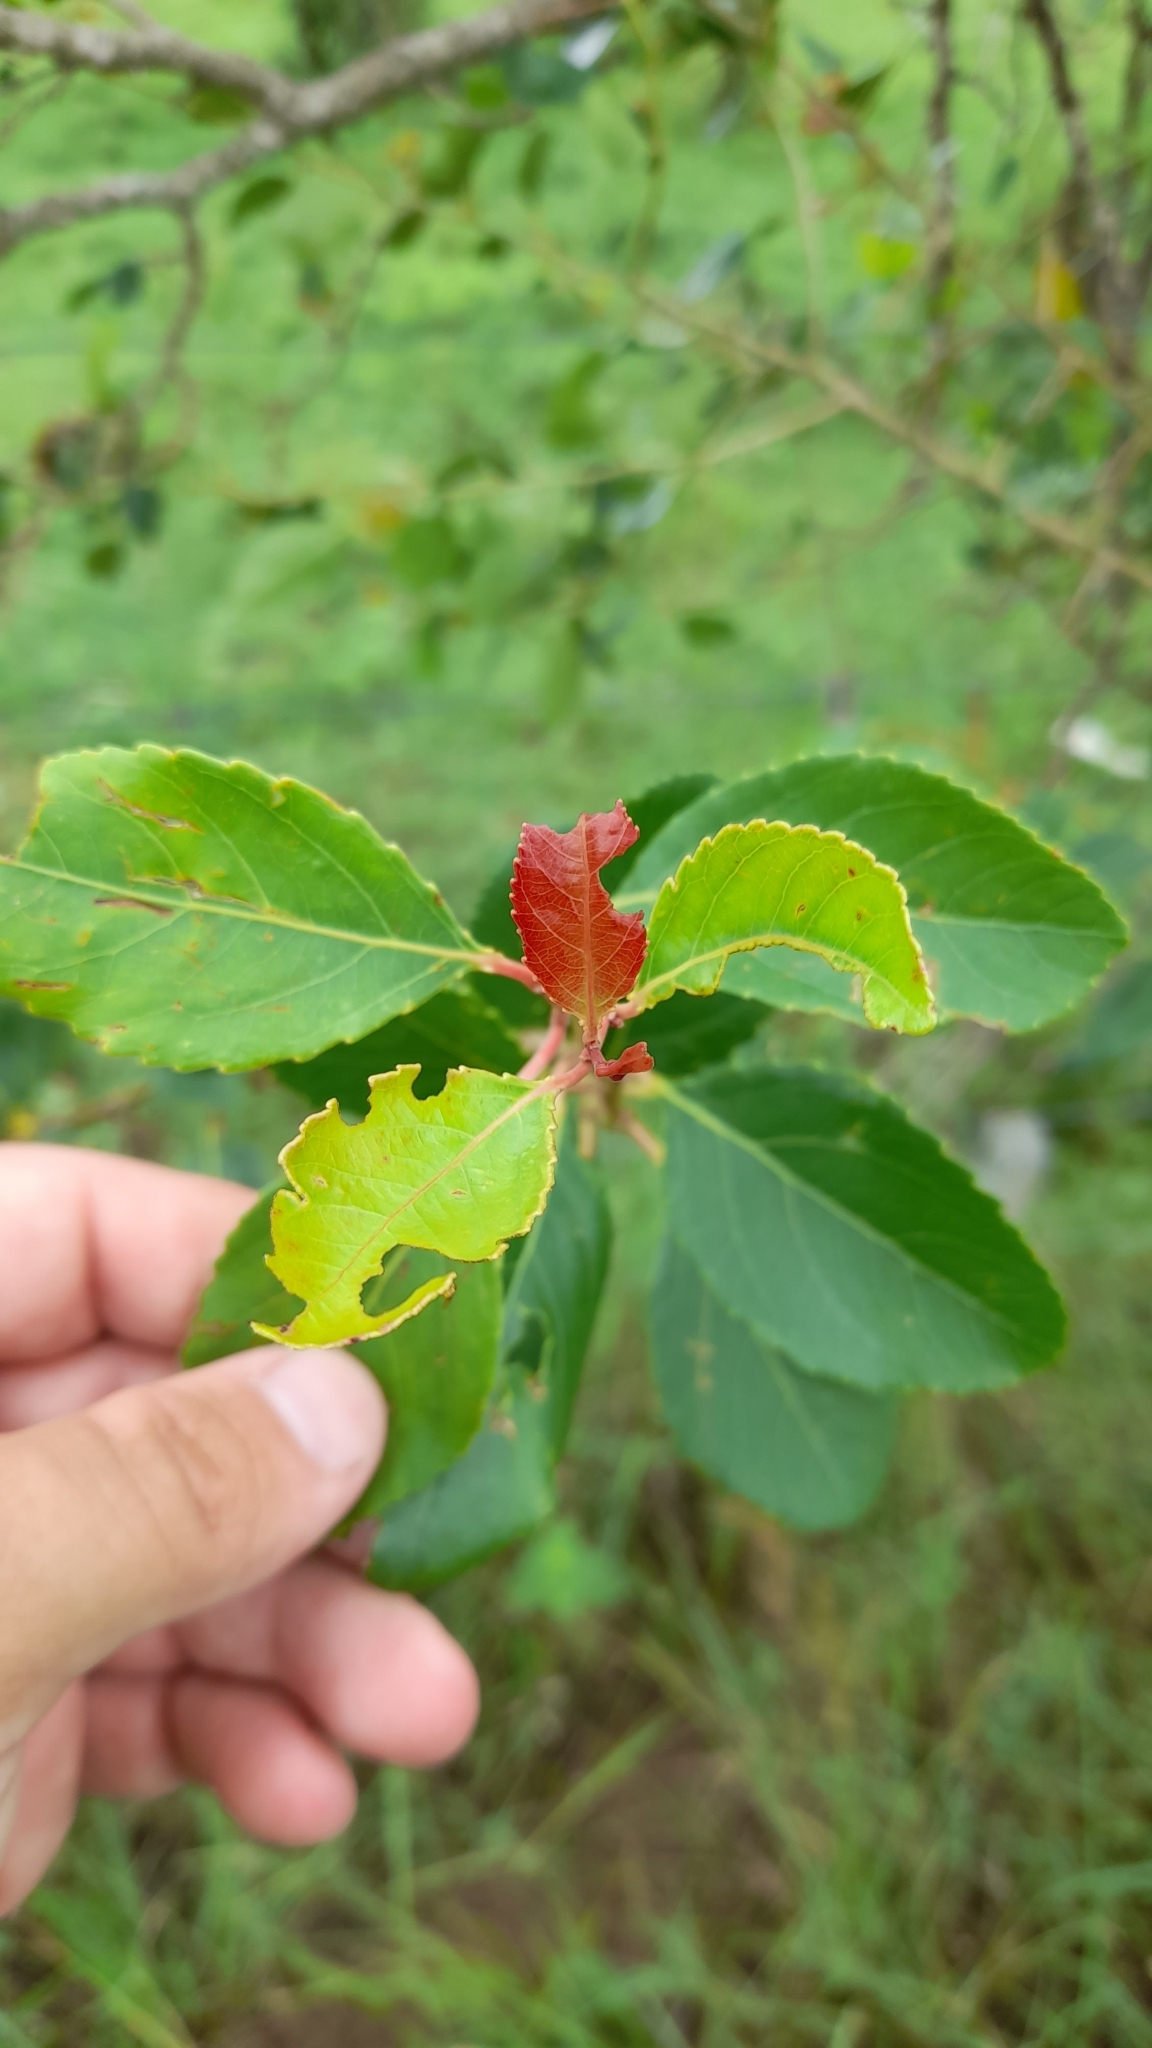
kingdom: Plantae
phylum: Tracheophyta
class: Magnoliopsida
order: Malpighiales
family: Salicaceae
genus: Xylosma
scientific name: Xylosma venosa
